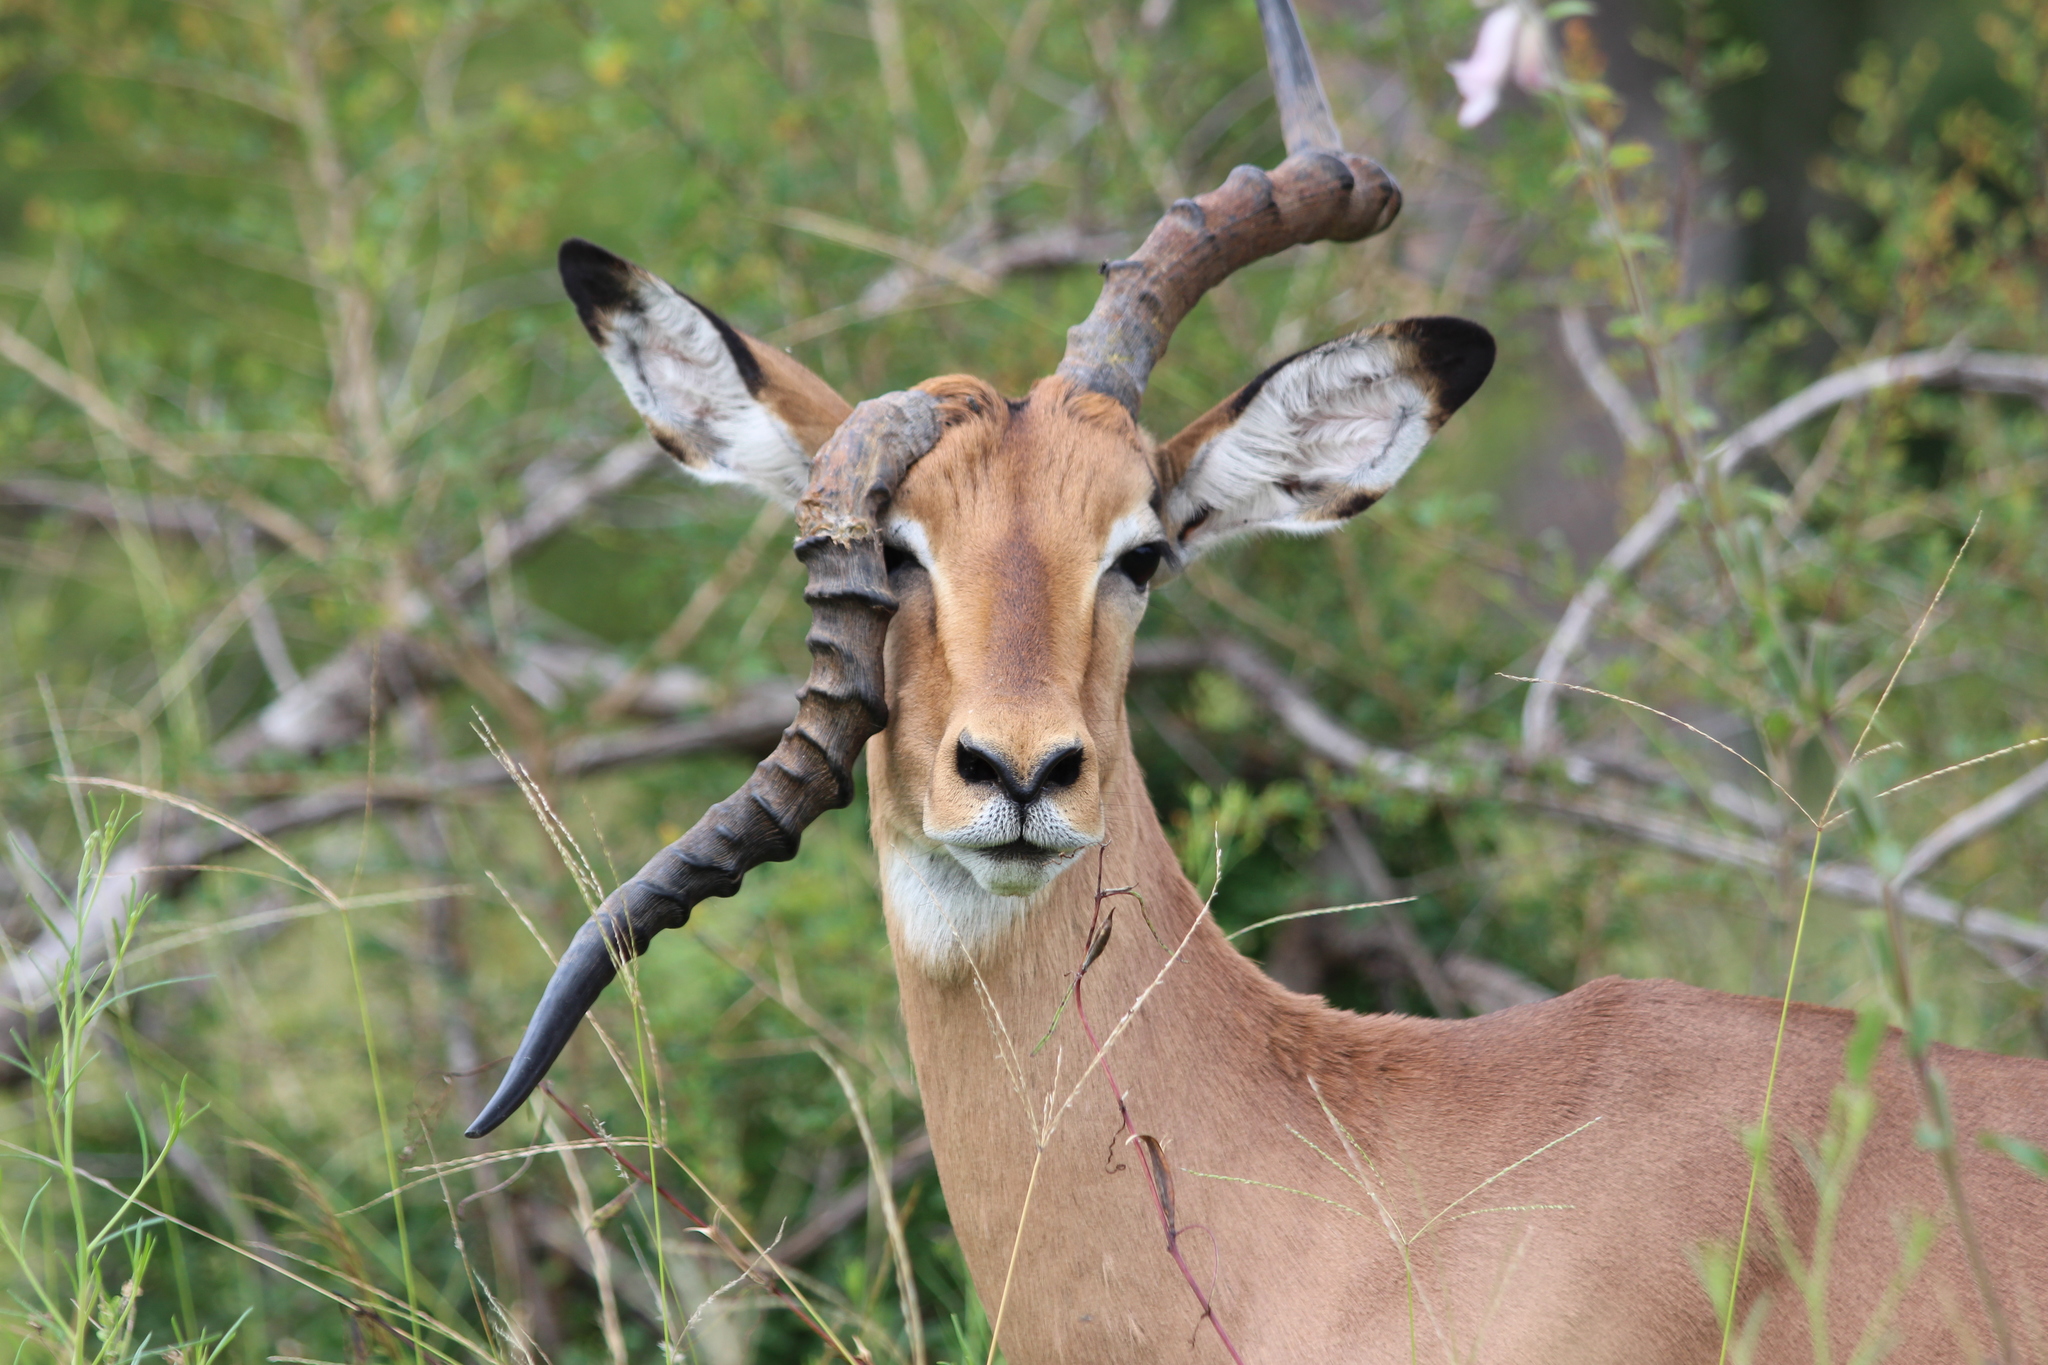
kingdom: Animalia
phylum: Chordata
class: Mammalia
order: Artiodactyla
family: Bovidae
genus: Aepyceros
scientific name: Aepyceros melampus
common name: Impala
